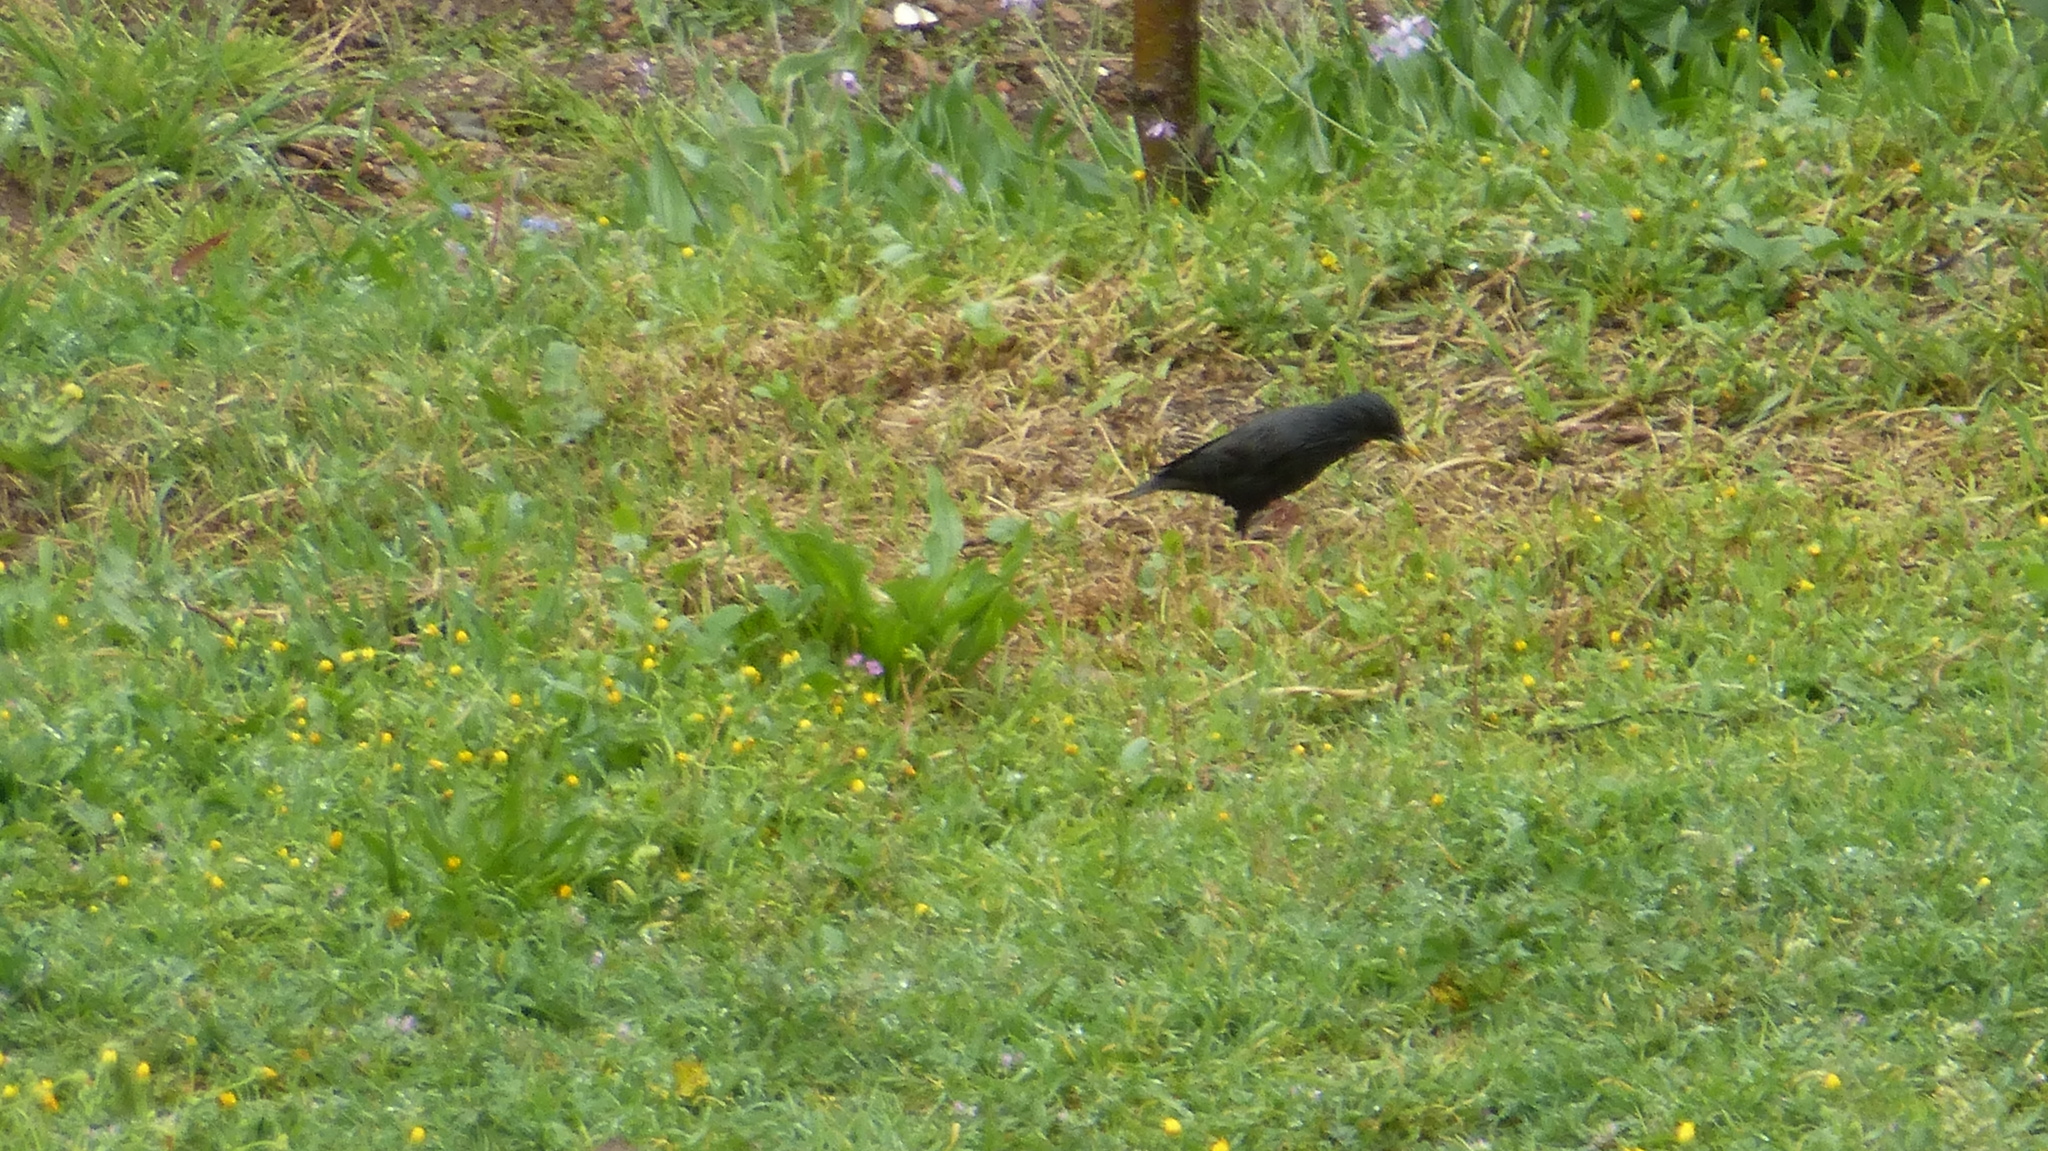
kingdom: Animalia
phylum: Chordata
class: Aves
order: Passeriformes
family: Sturnidae
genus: Sturnus
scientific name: Sturnus unicolor
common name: Spotless starling
